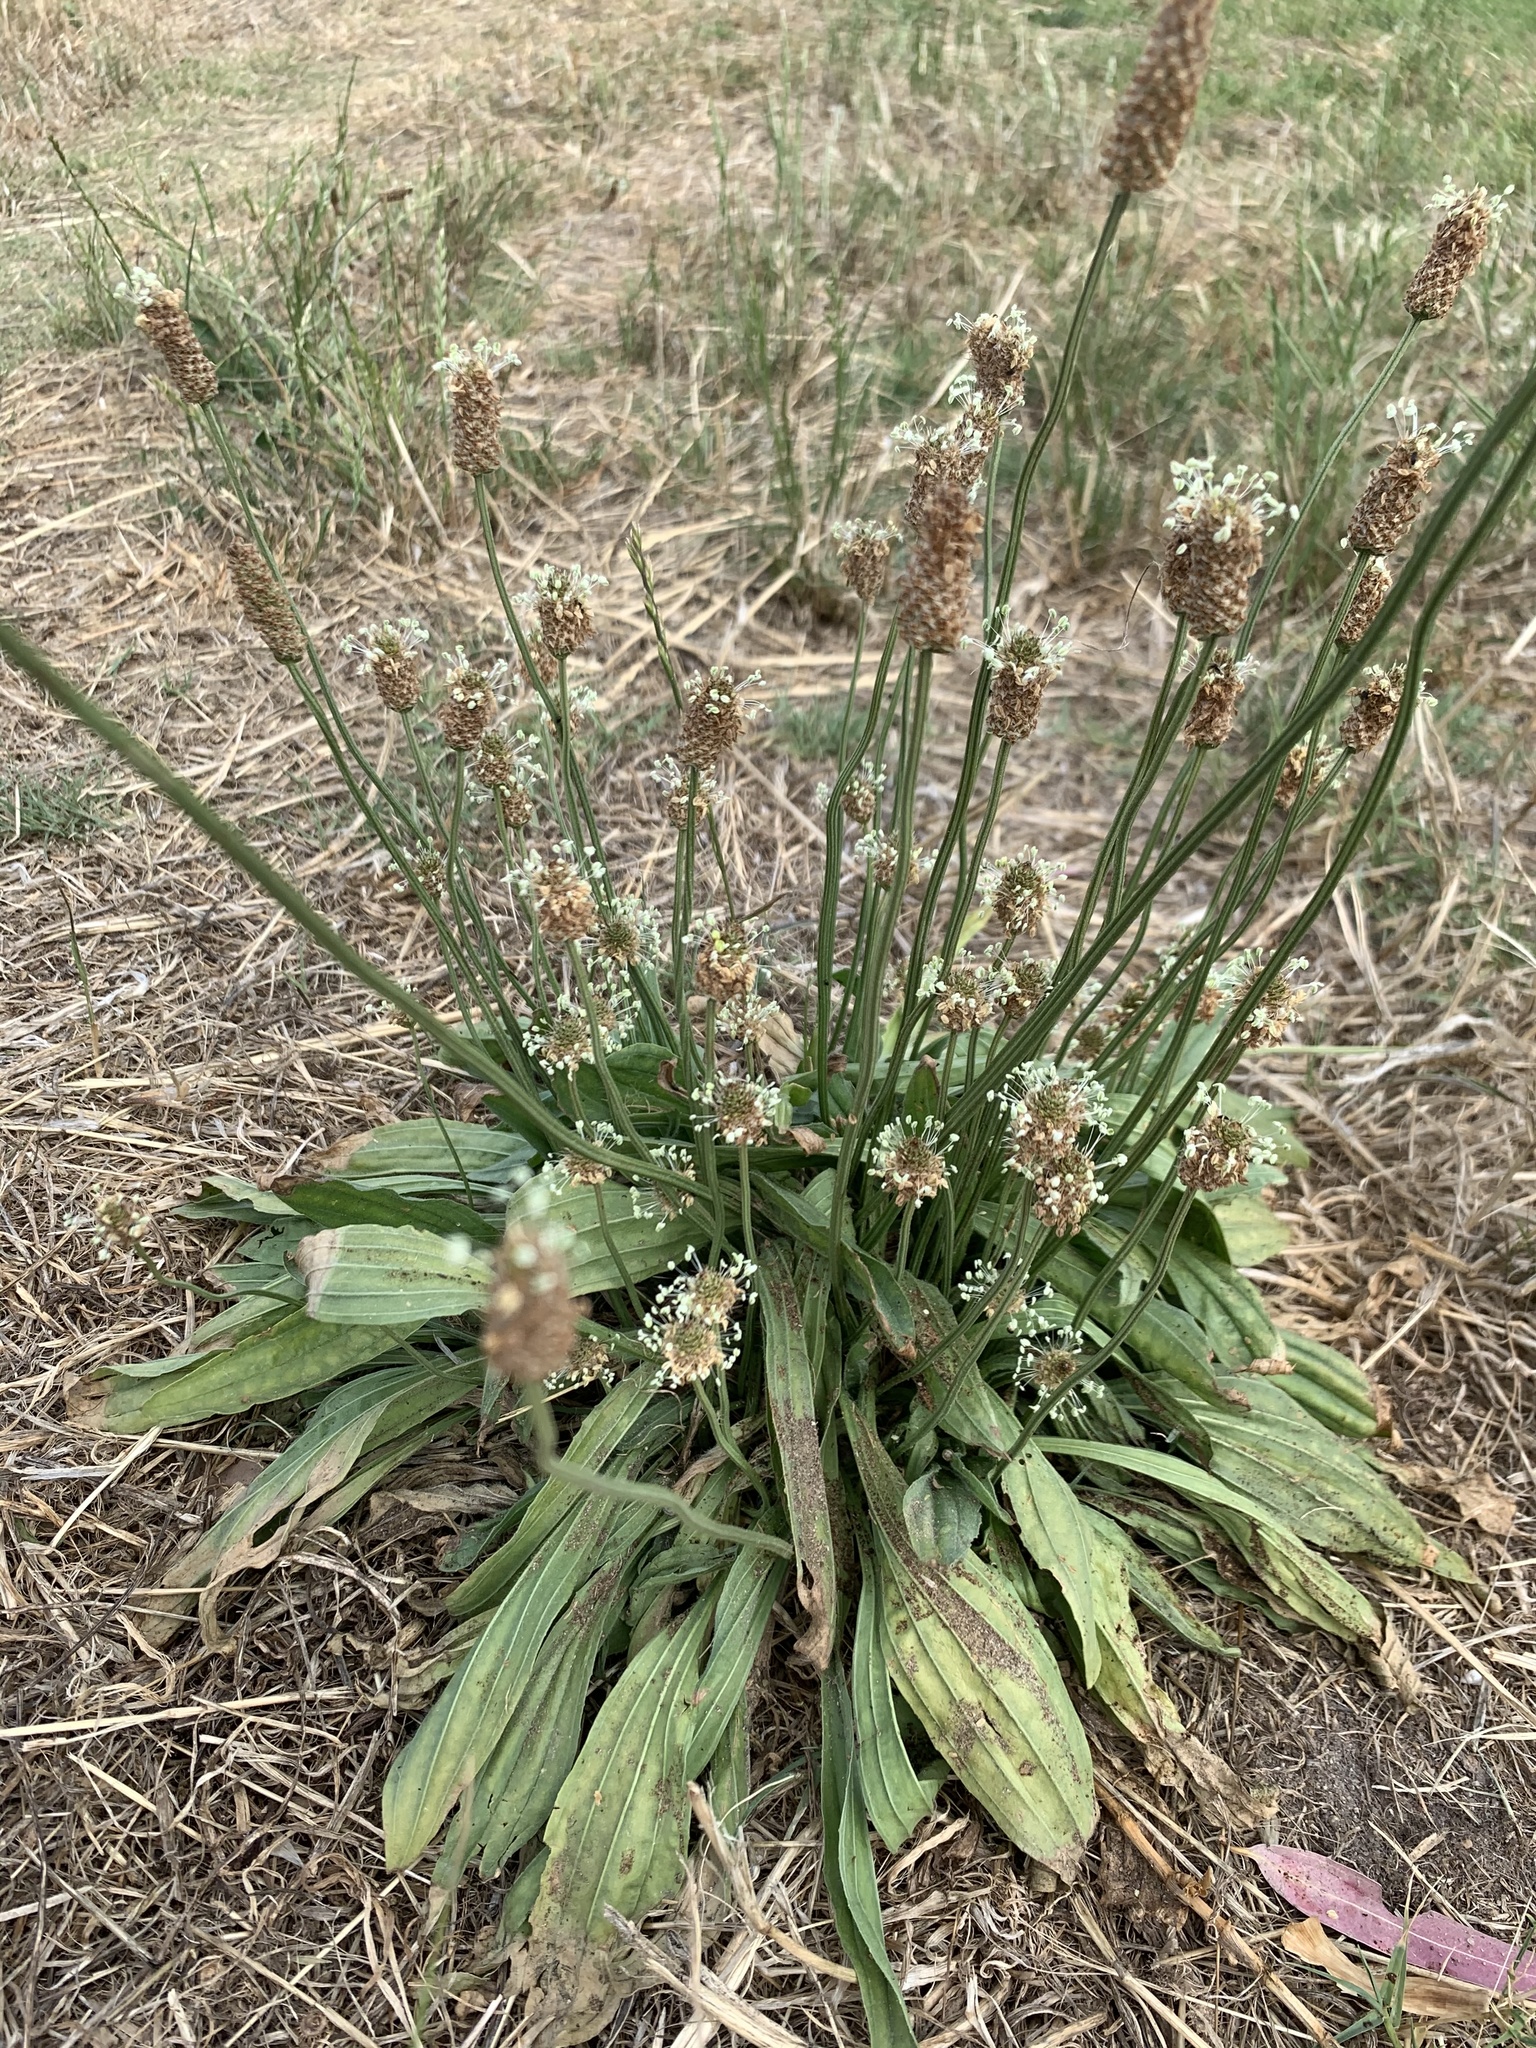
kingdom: Plantae
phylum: Tracheophyta
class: Magnoliopsida
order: Lamiales
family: Plantaginaceae
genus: Plantago
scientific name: Plantago lanceolata
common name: Ribwort plantain
